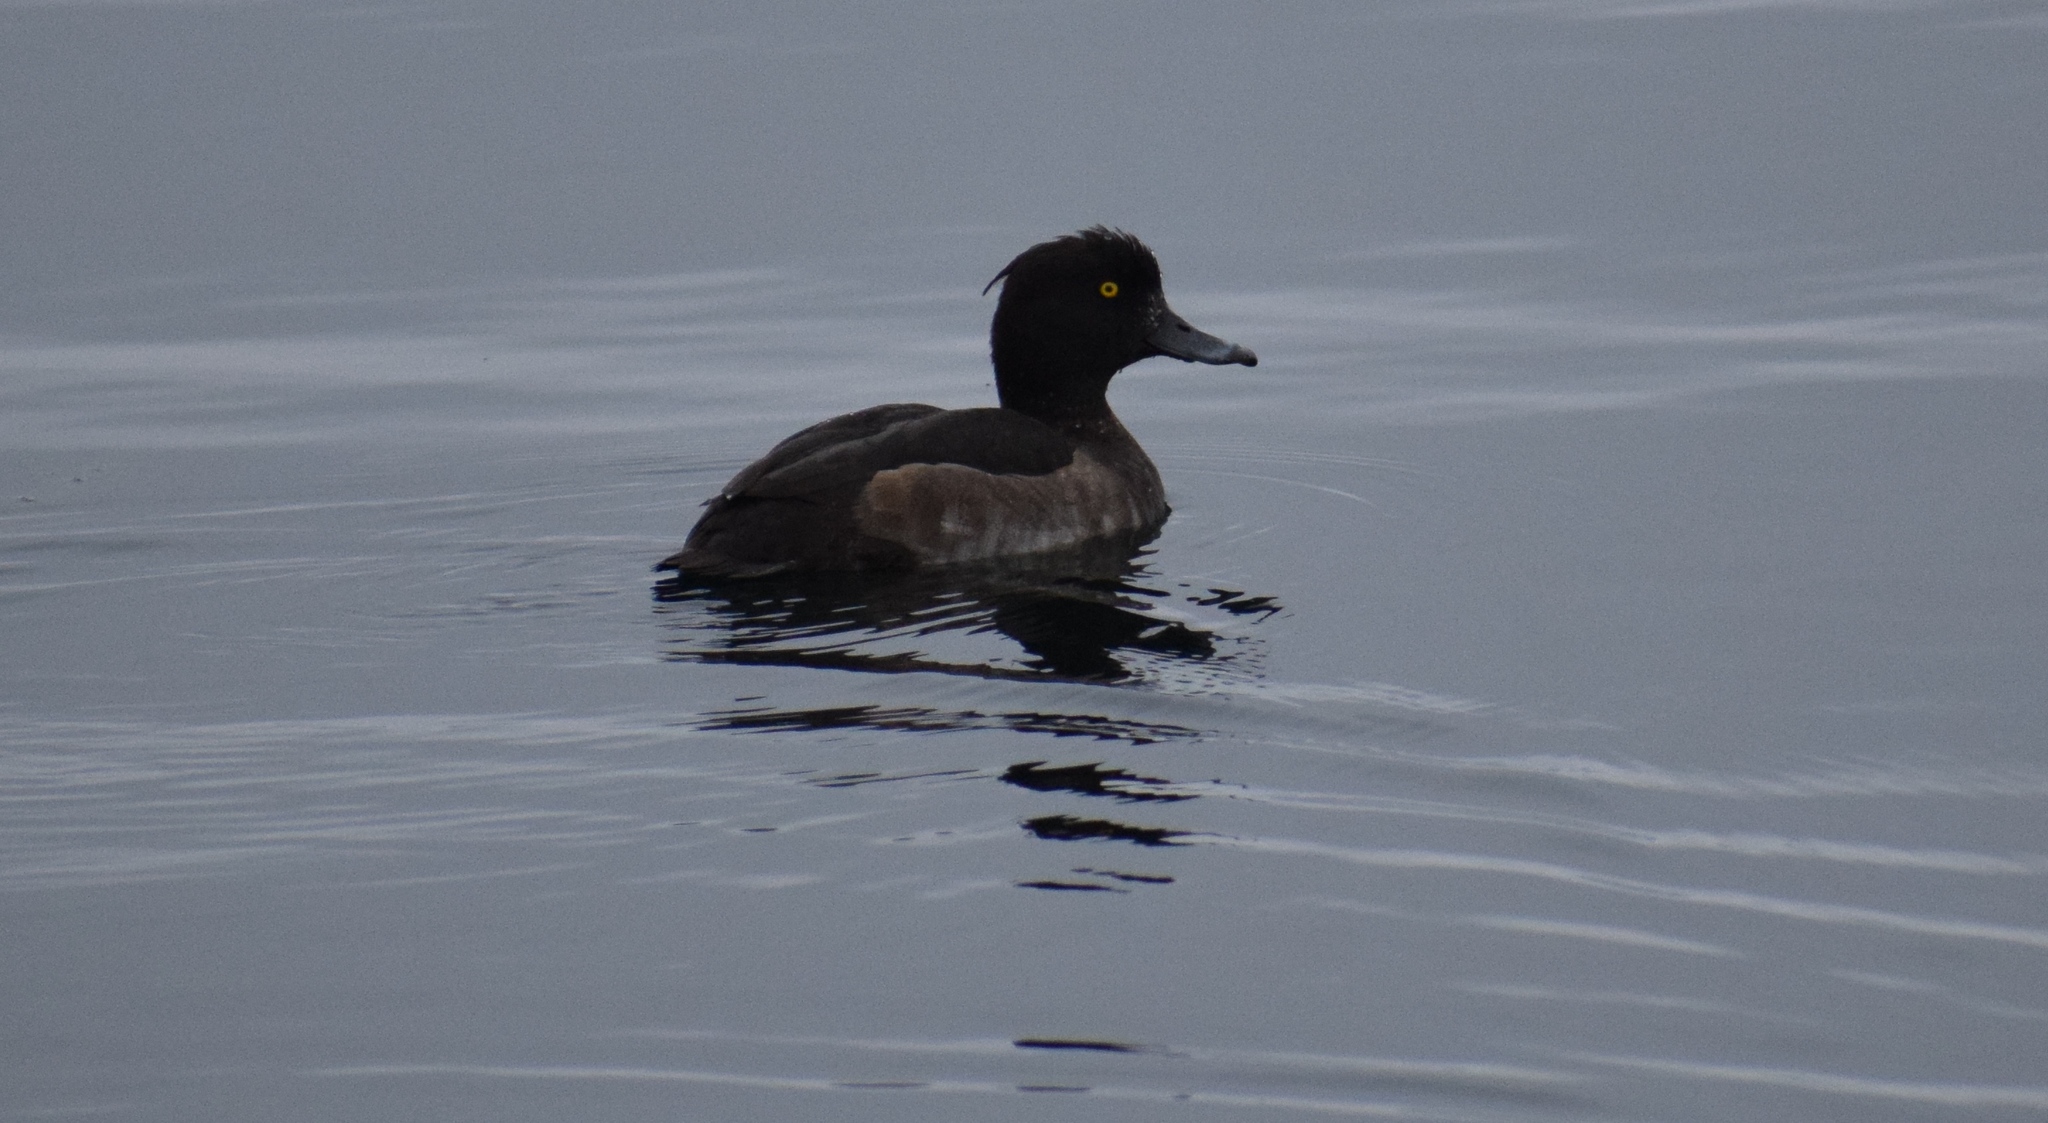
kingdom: Animalia
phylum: Chordata
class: Aves
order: Anseriformes
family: Anatidae
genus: Aythya
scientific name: Aythya fuligula
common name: Tufted duck
